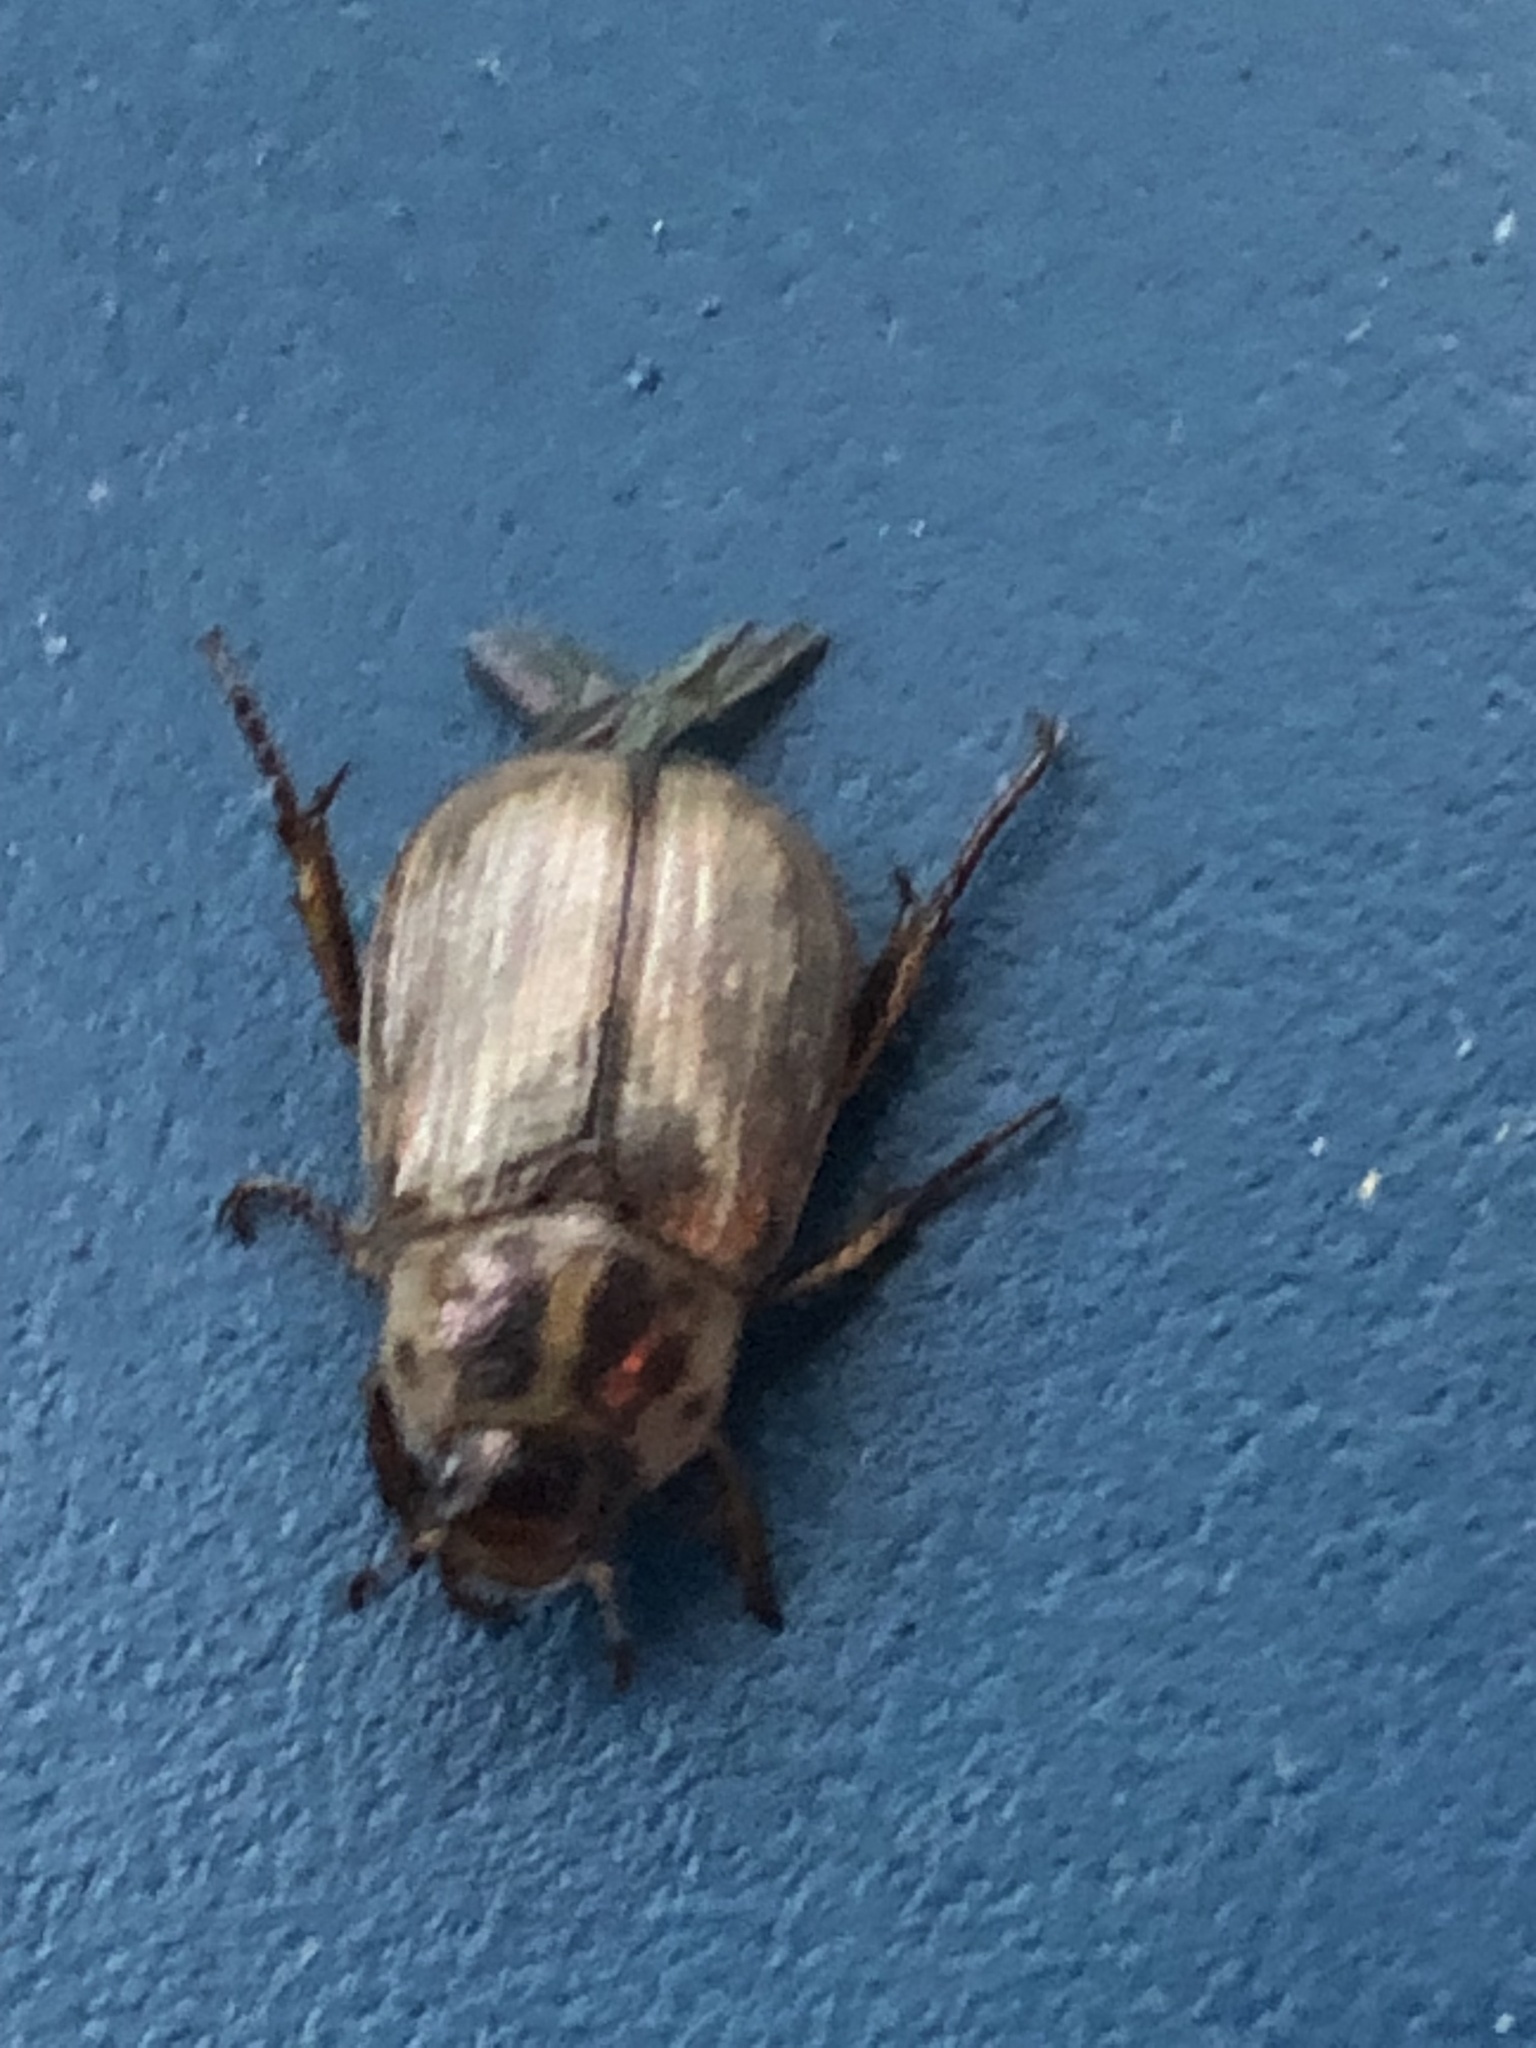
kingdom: Animalia
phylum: Arthropoda
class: Insecta
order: Coleoptera
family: Scarabaeidae
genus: Exomala
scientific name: Exomala orientalis
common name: Oriental beetle
